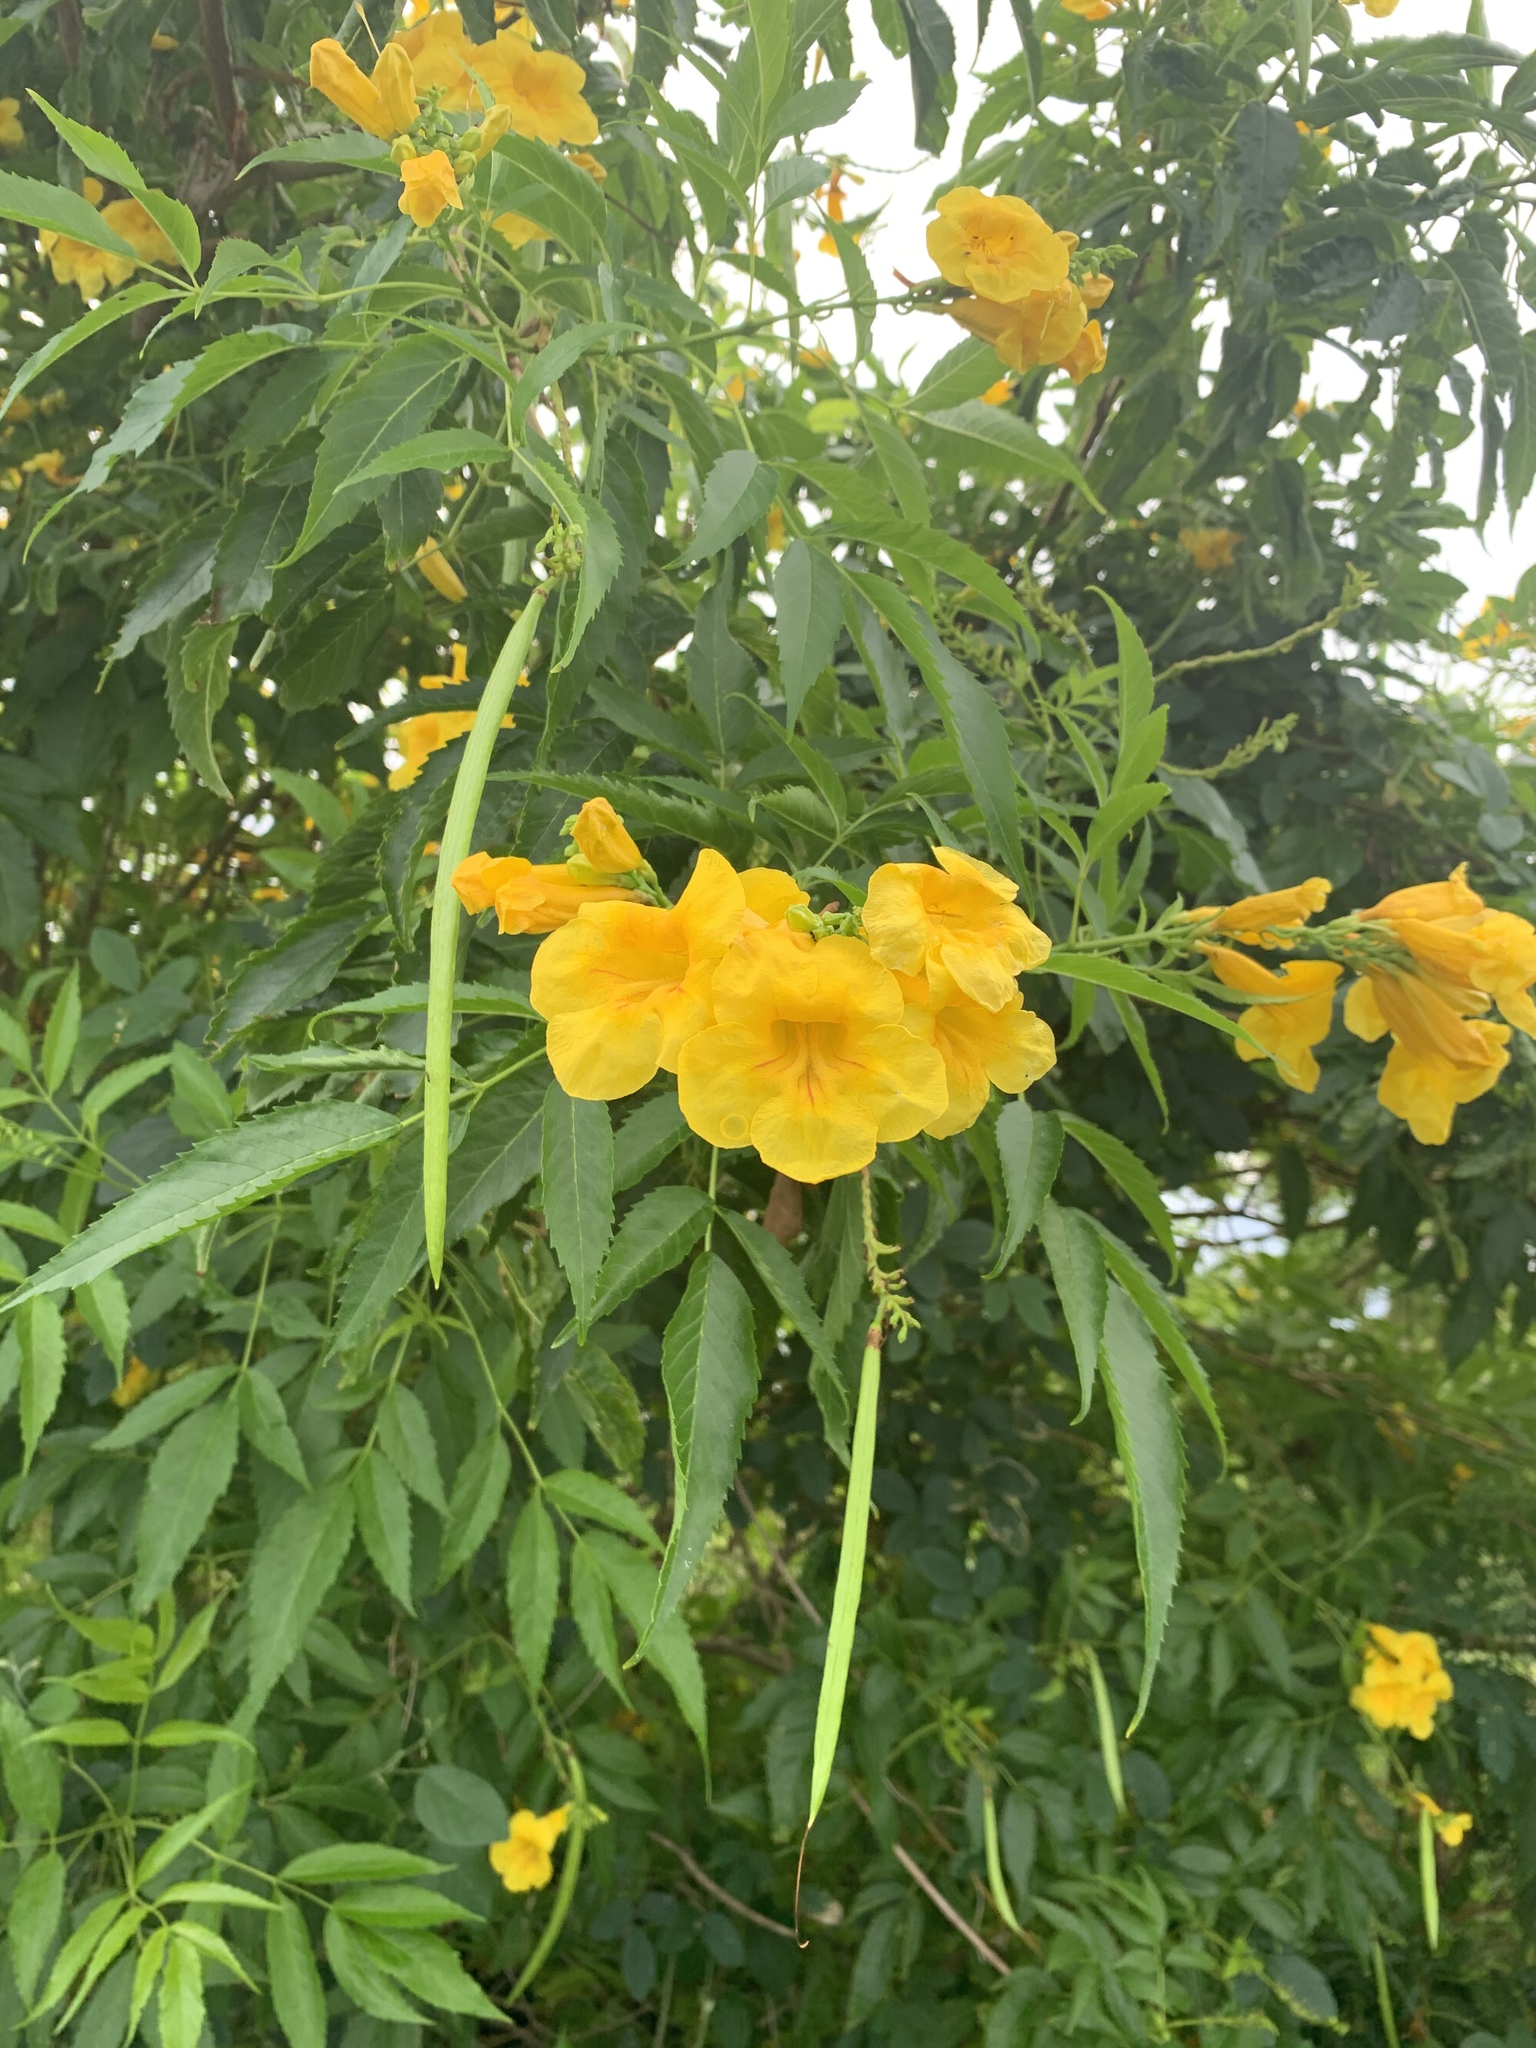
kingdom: Plantae
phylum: Tracheophyta
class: Magnoliopsida
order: Lamiales
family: Bignoniaceae
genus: Tecoma
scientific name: Tecoma stans
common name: Yellow trumpetbush
